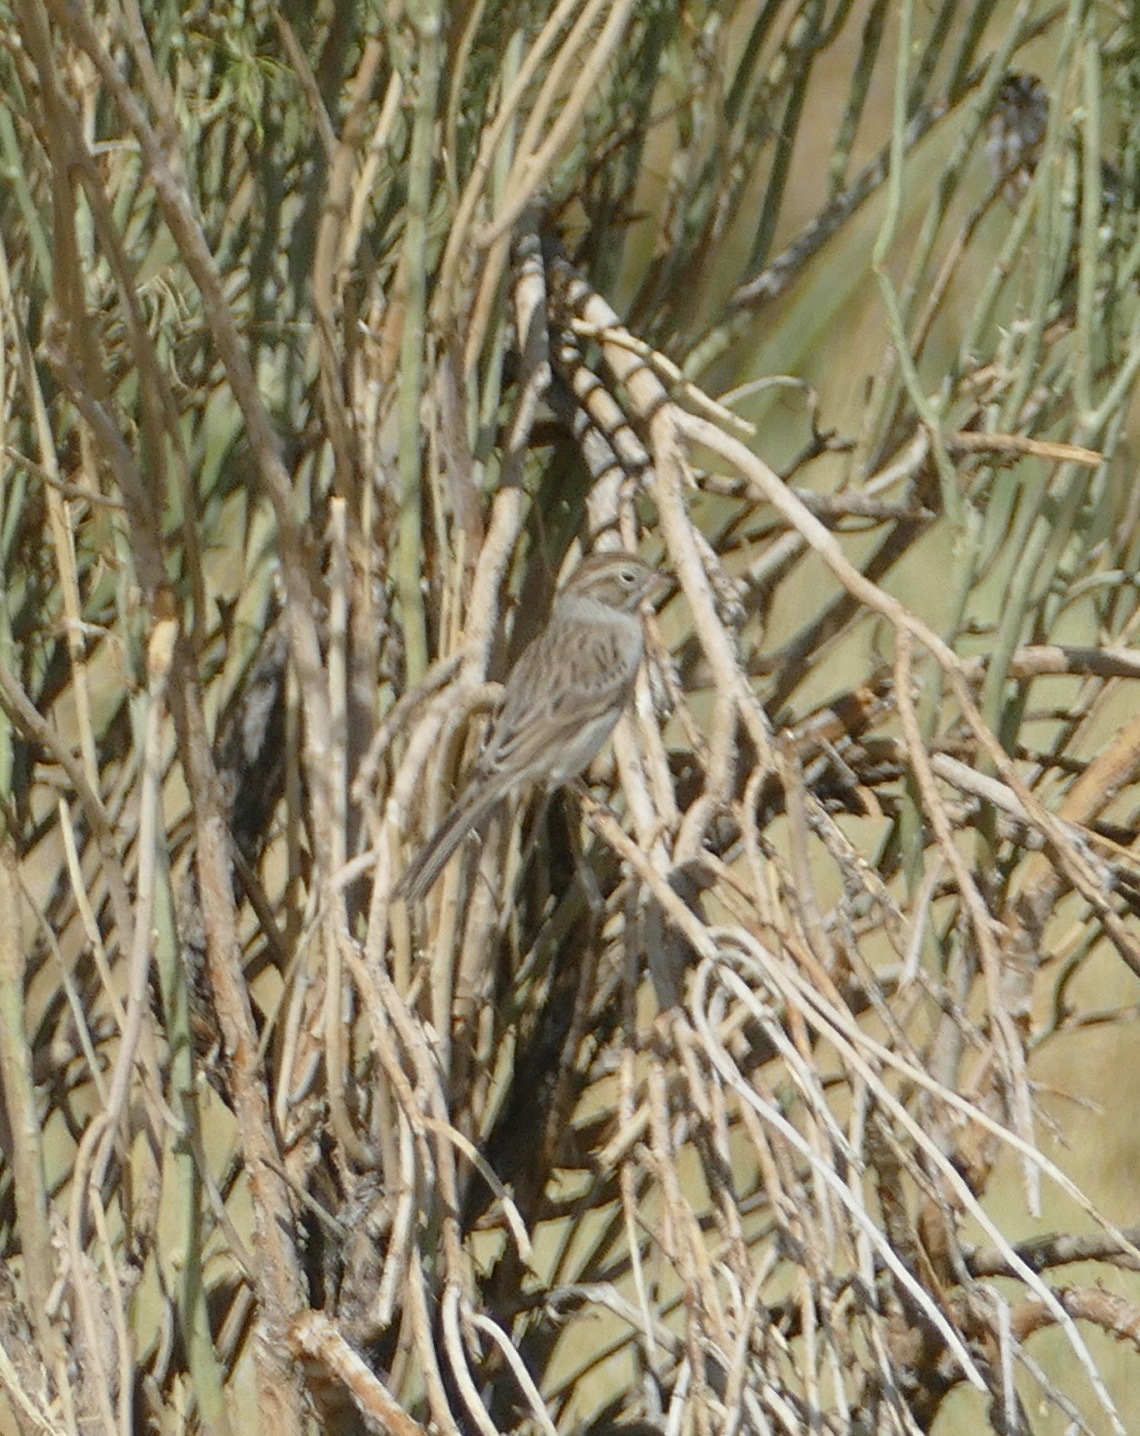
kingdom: Animalia
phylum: Chordata
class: Aves
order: Passeriformes
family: Passerellidae
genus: Spizella
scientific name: Spizella breweri
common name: Brewer's sparrow
